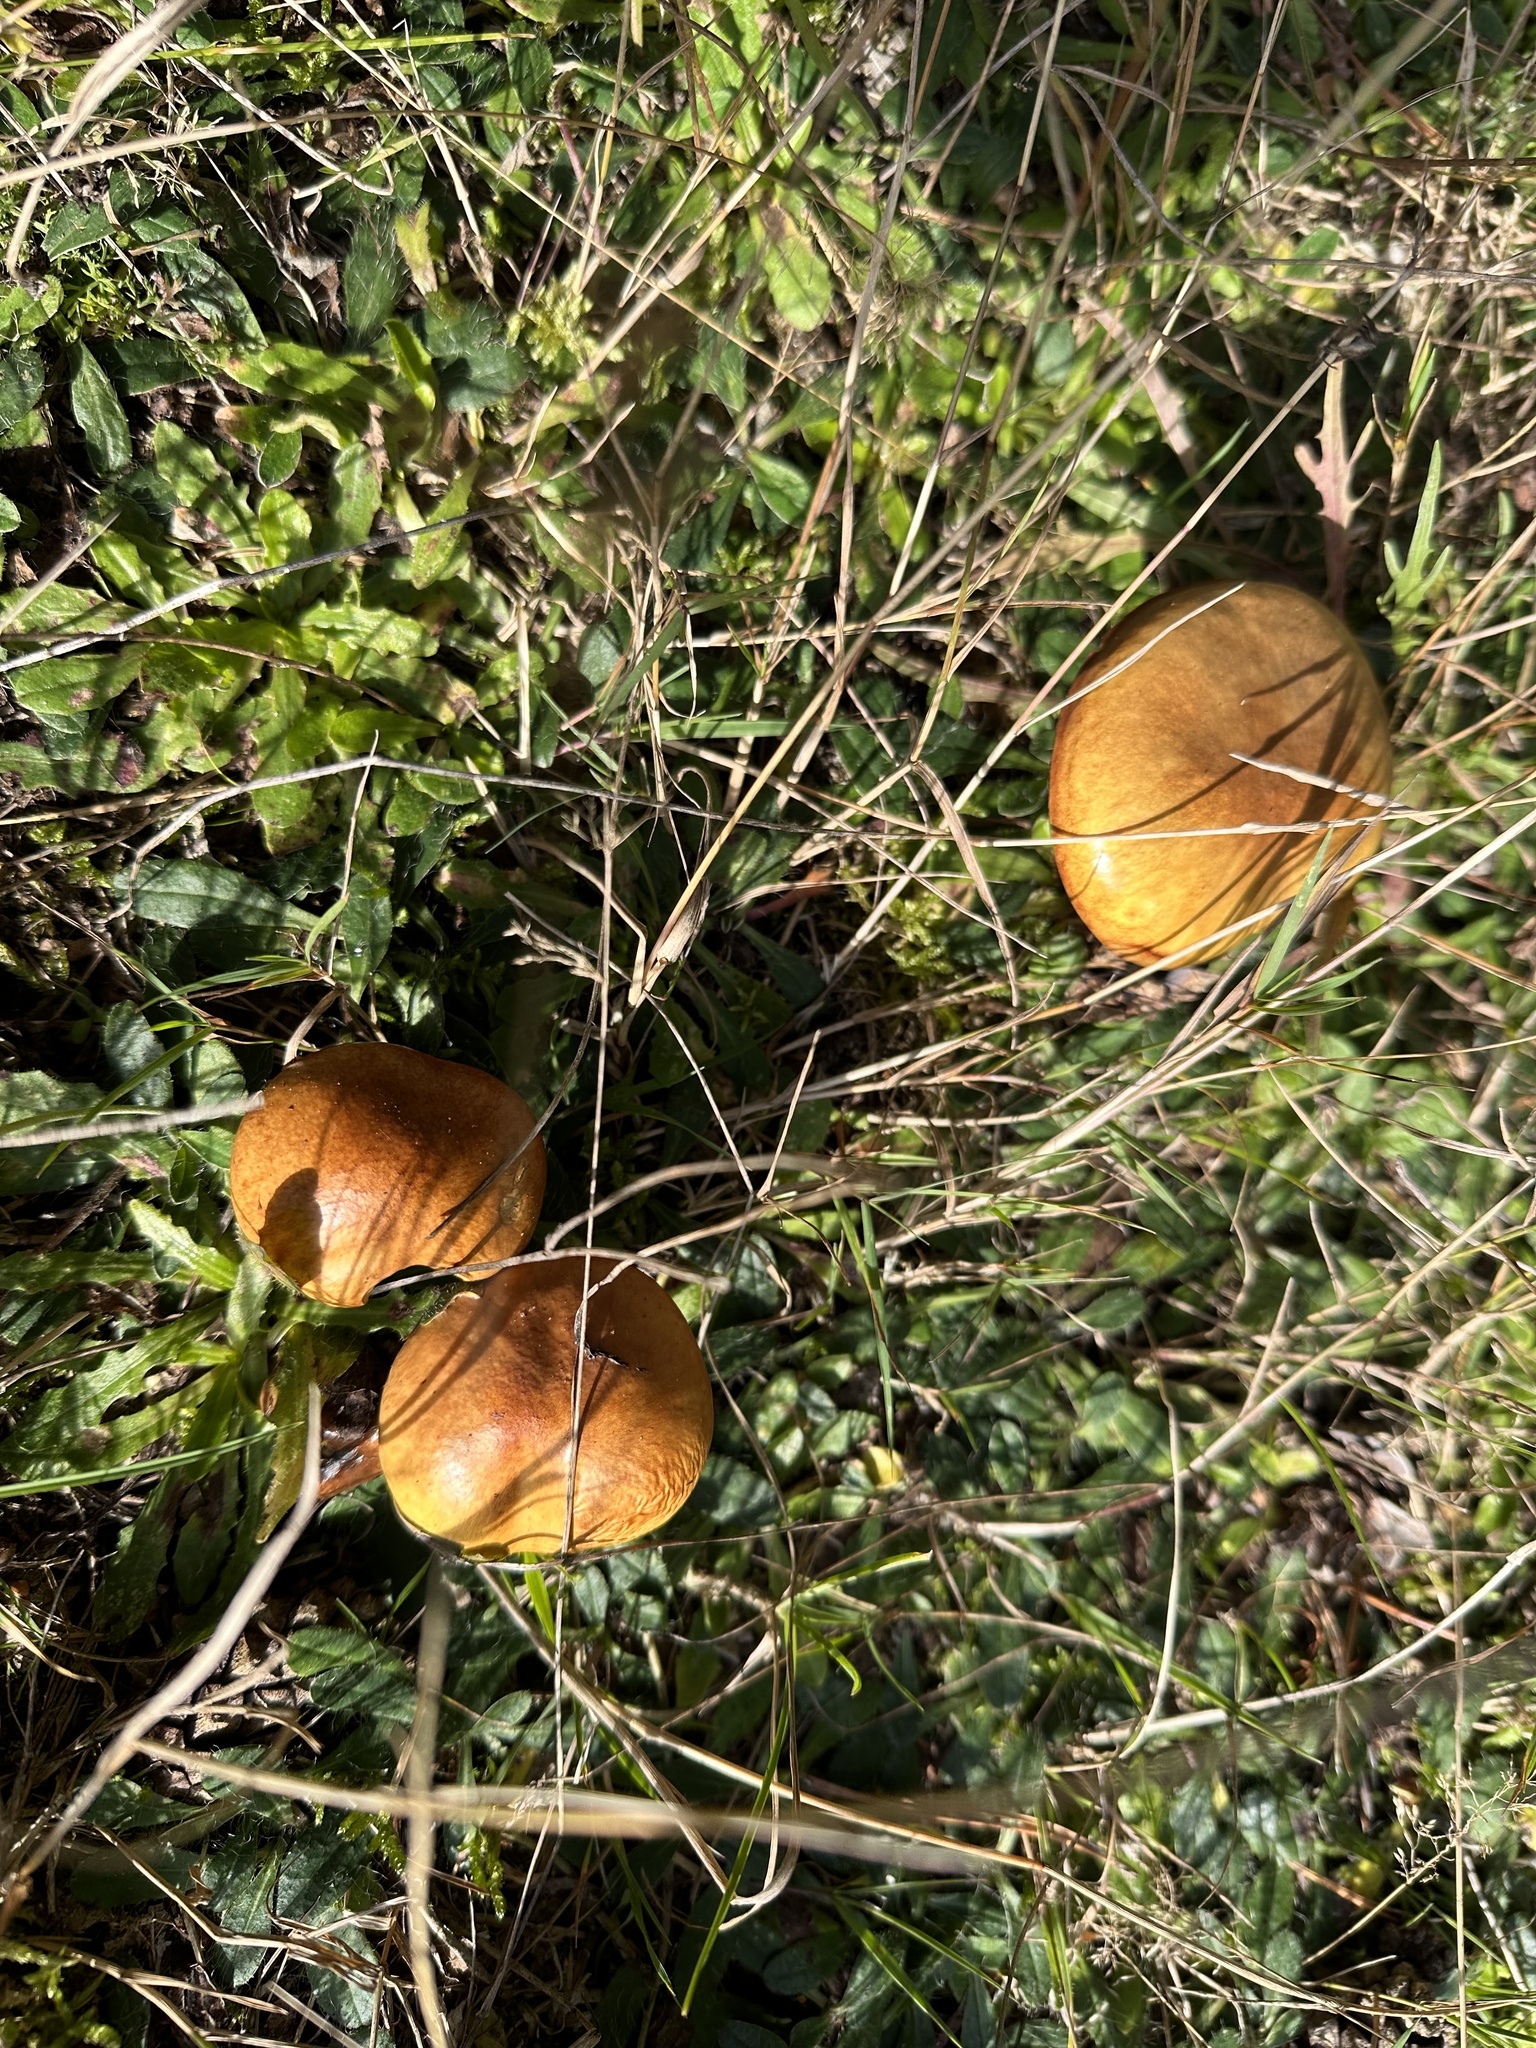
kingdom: Fungi
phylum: Basidiomycota
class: Agaricomycetes
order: Boletales
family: Suillaceae
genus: Suillus
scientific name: Suillus luteus
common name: Slippery jack
